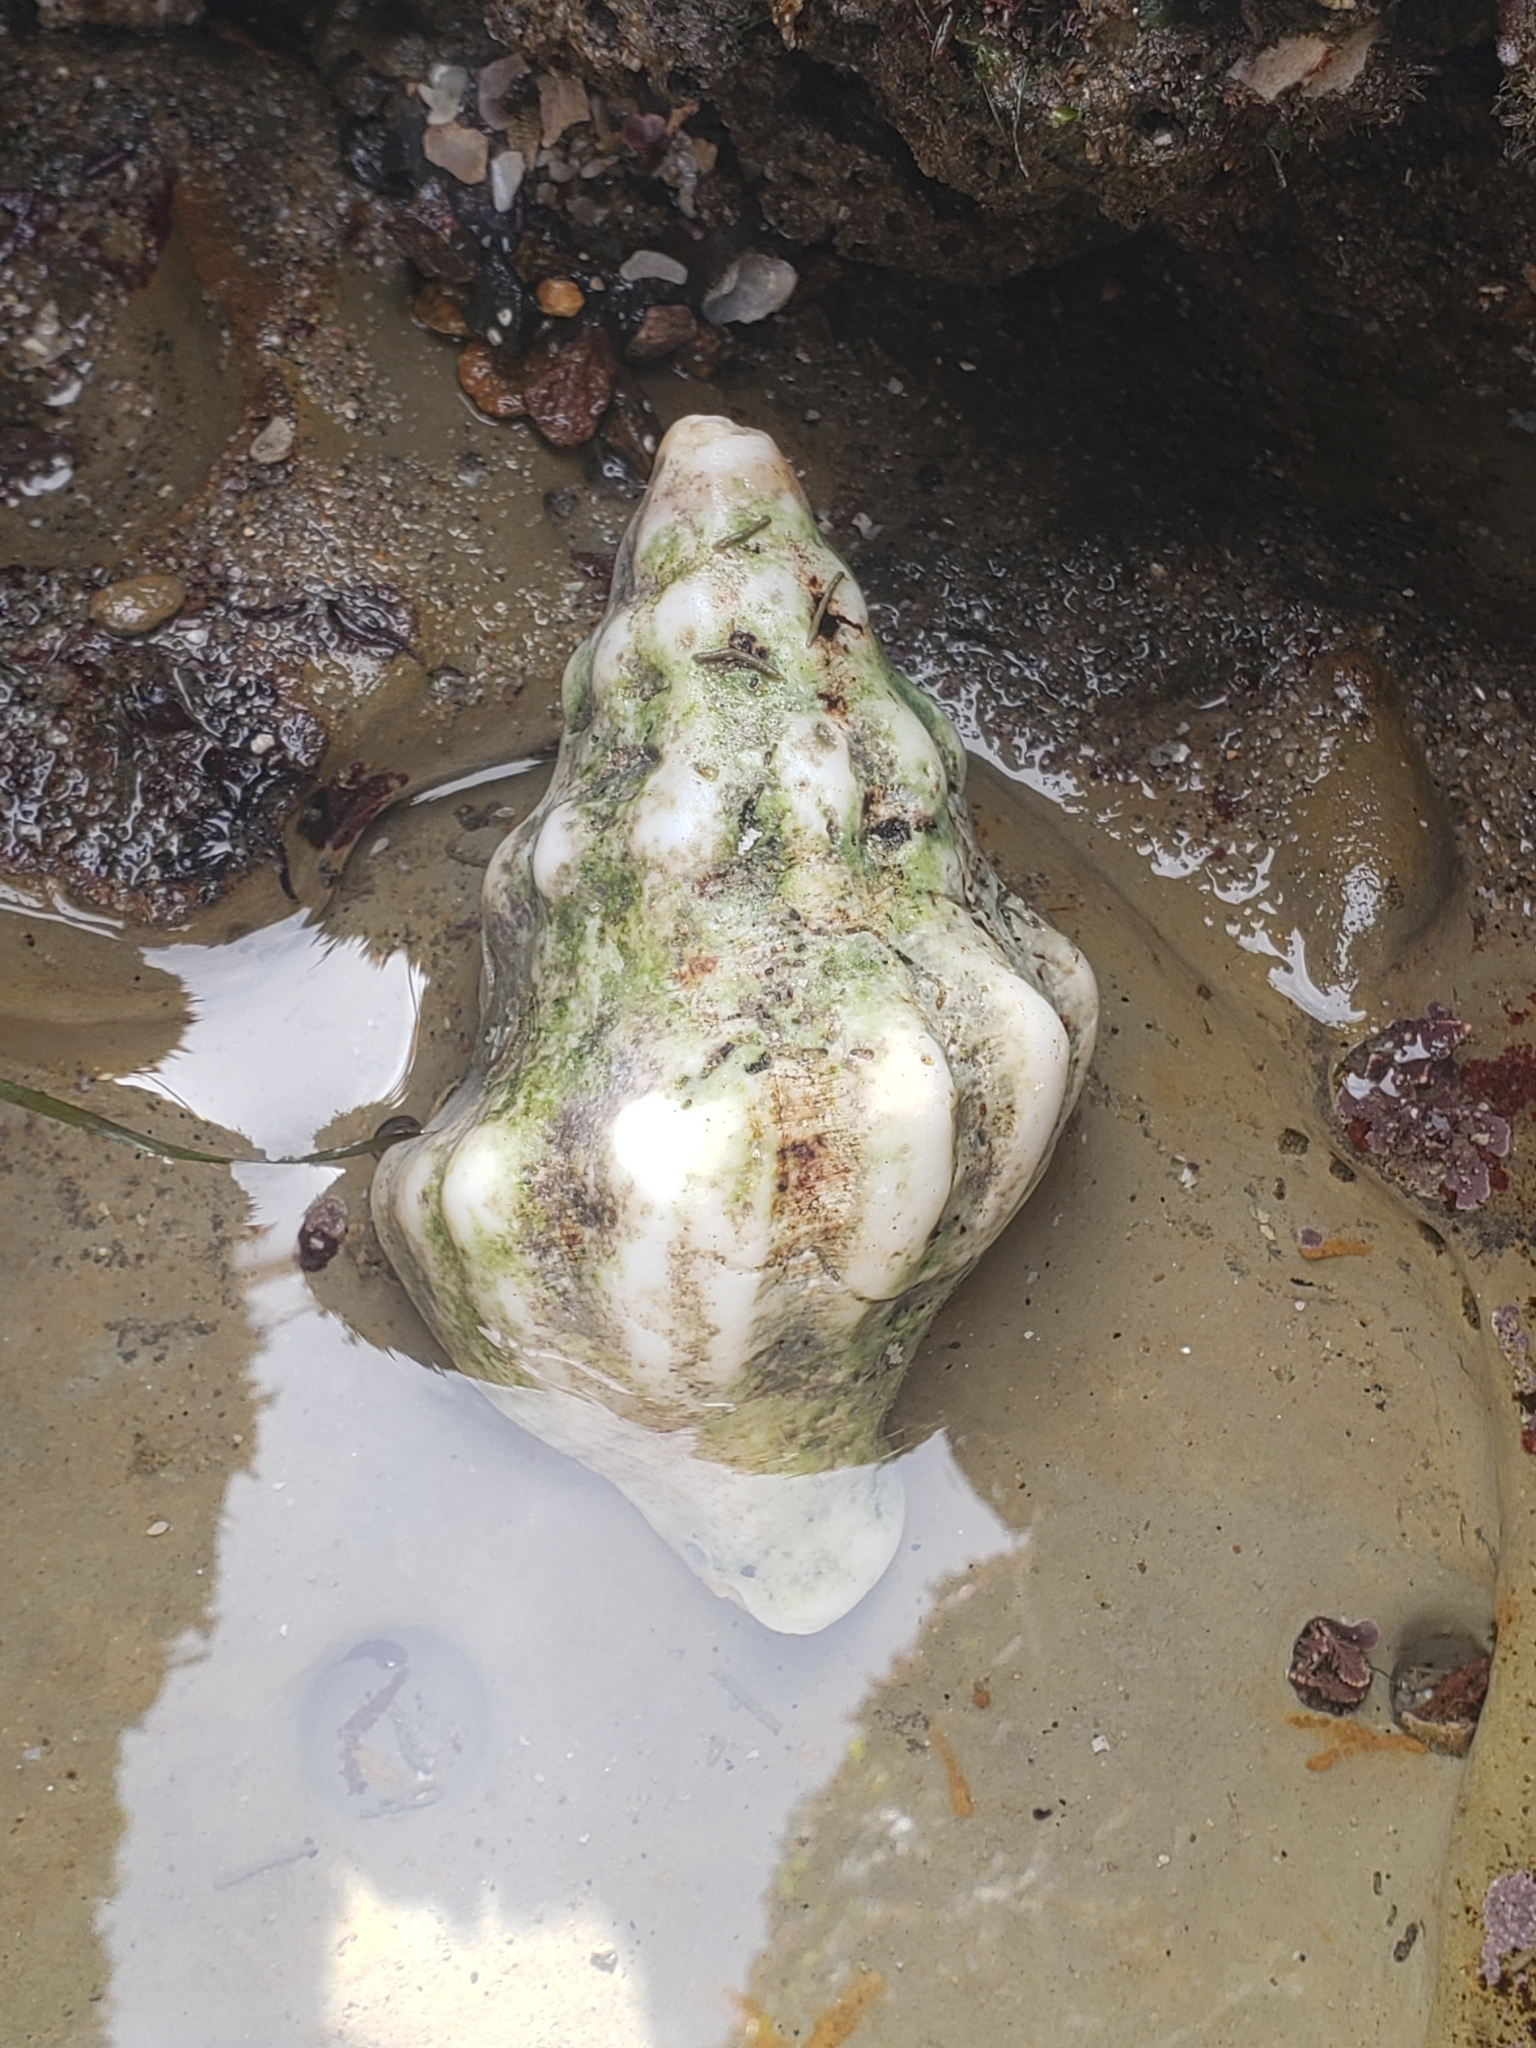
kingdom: Animalia
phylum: Mollusca
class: Gastropoda
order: Neogastropoda
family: Austrosiphonidae
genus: Kelletia
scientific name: Kelletia kelletii
